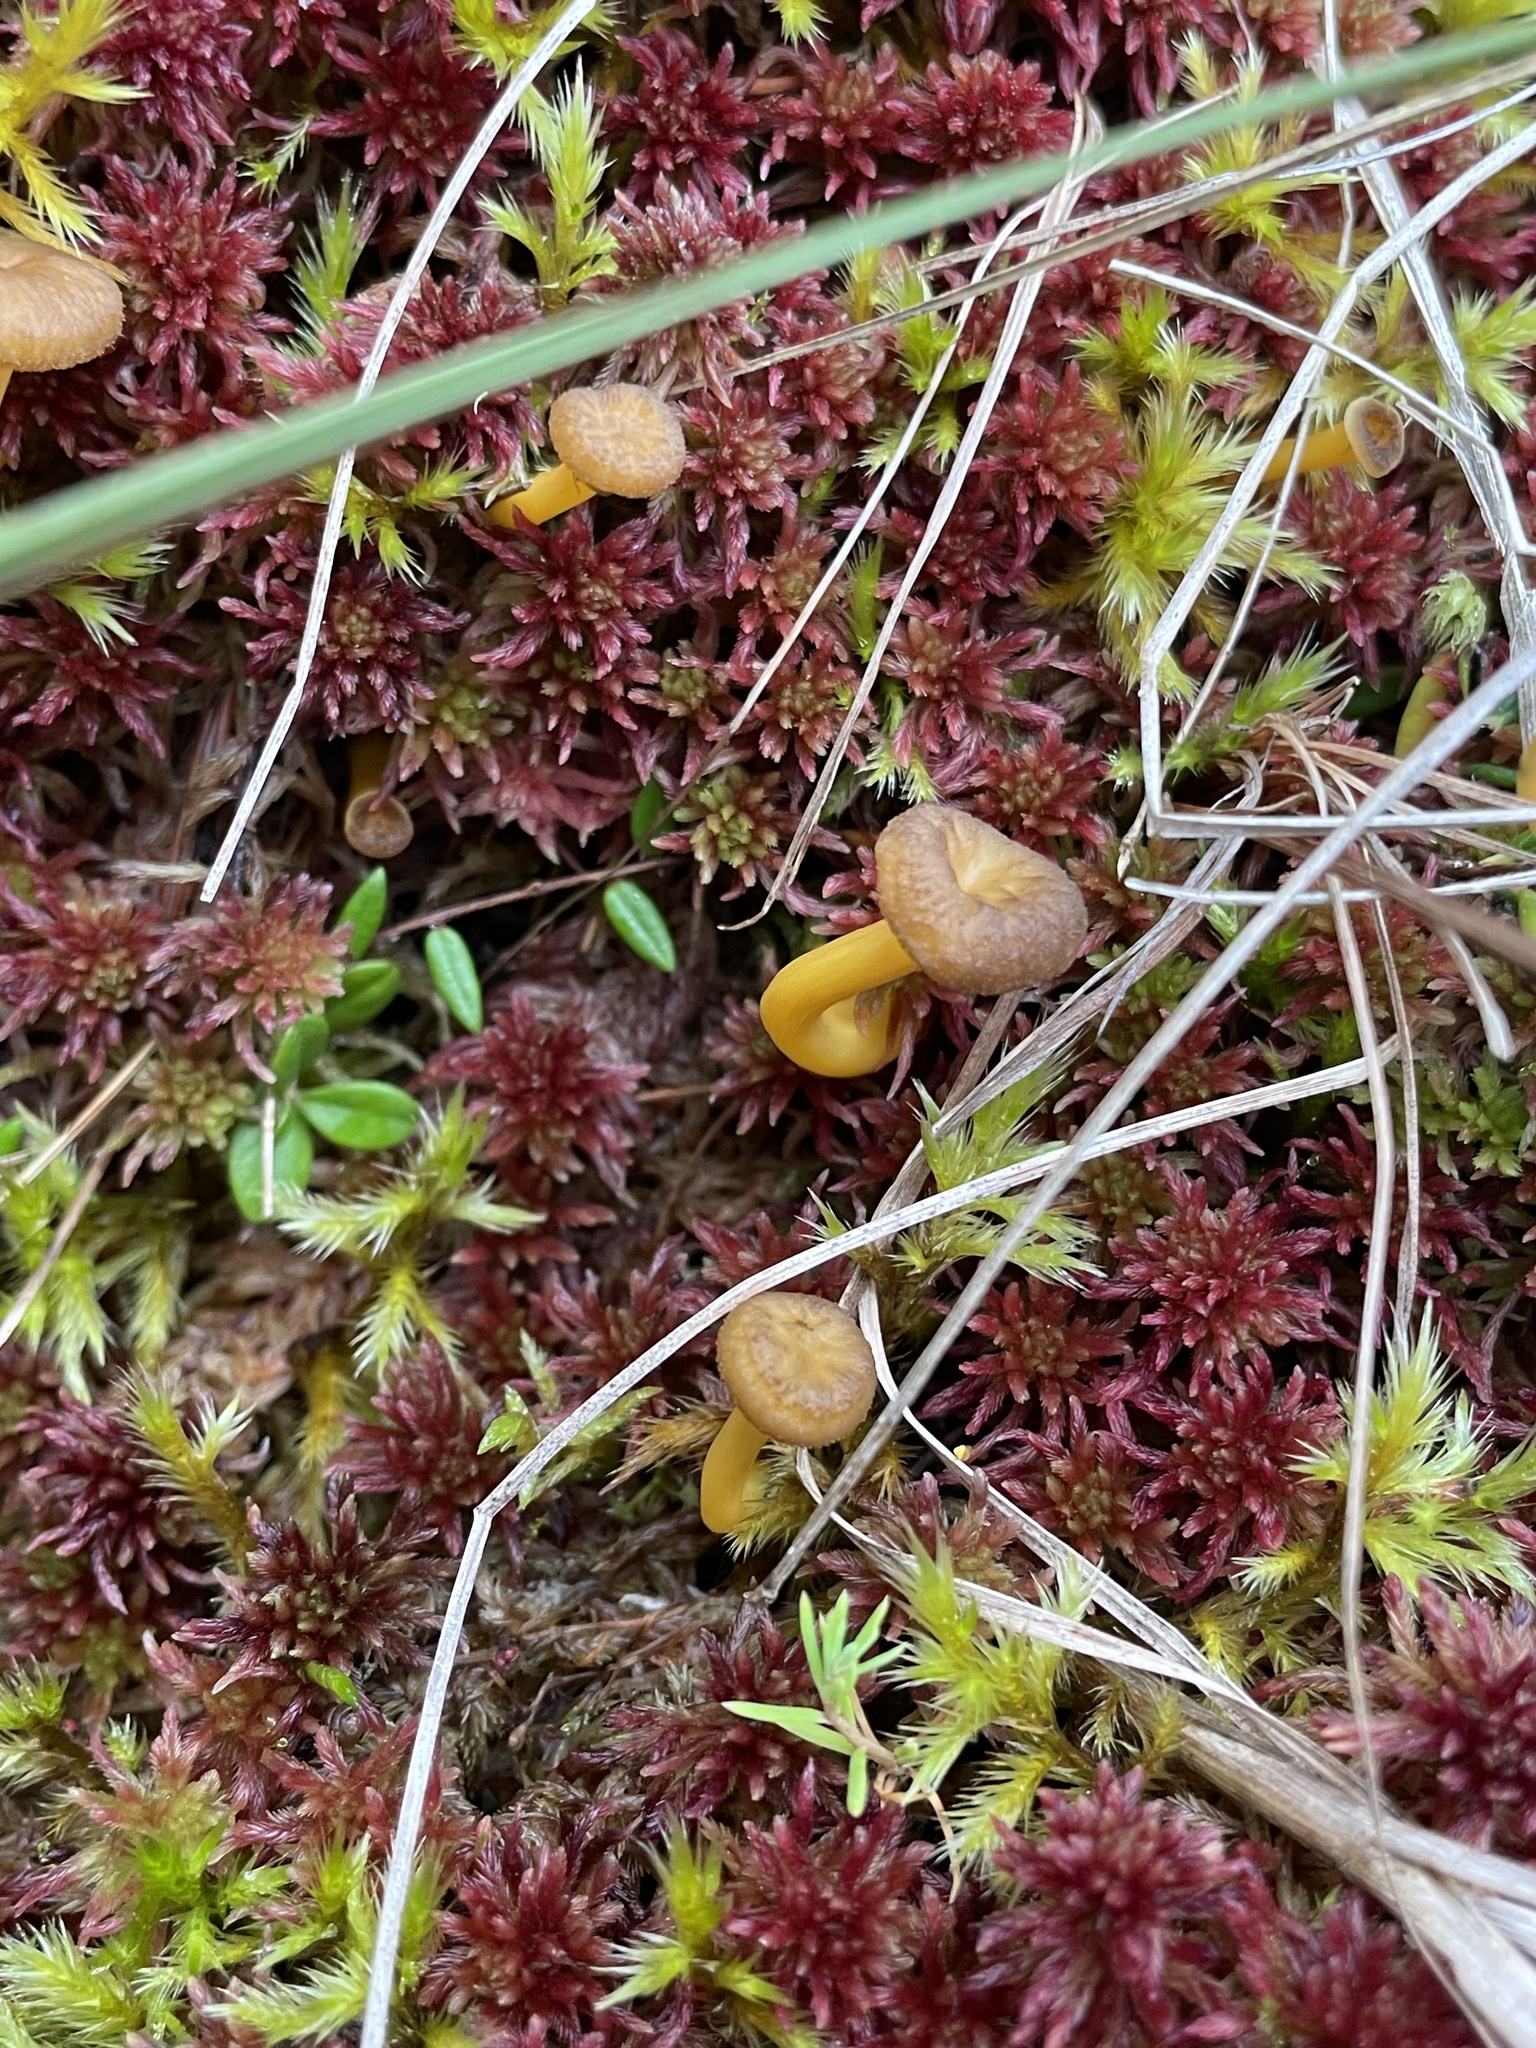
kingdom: Fungi
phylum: Basidiomycota
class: Agaricomycetes
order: Cantharellales
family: Hydnaceae
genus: Craterellus
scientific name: Craterellus tubaeformis
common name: Yellowfoot
